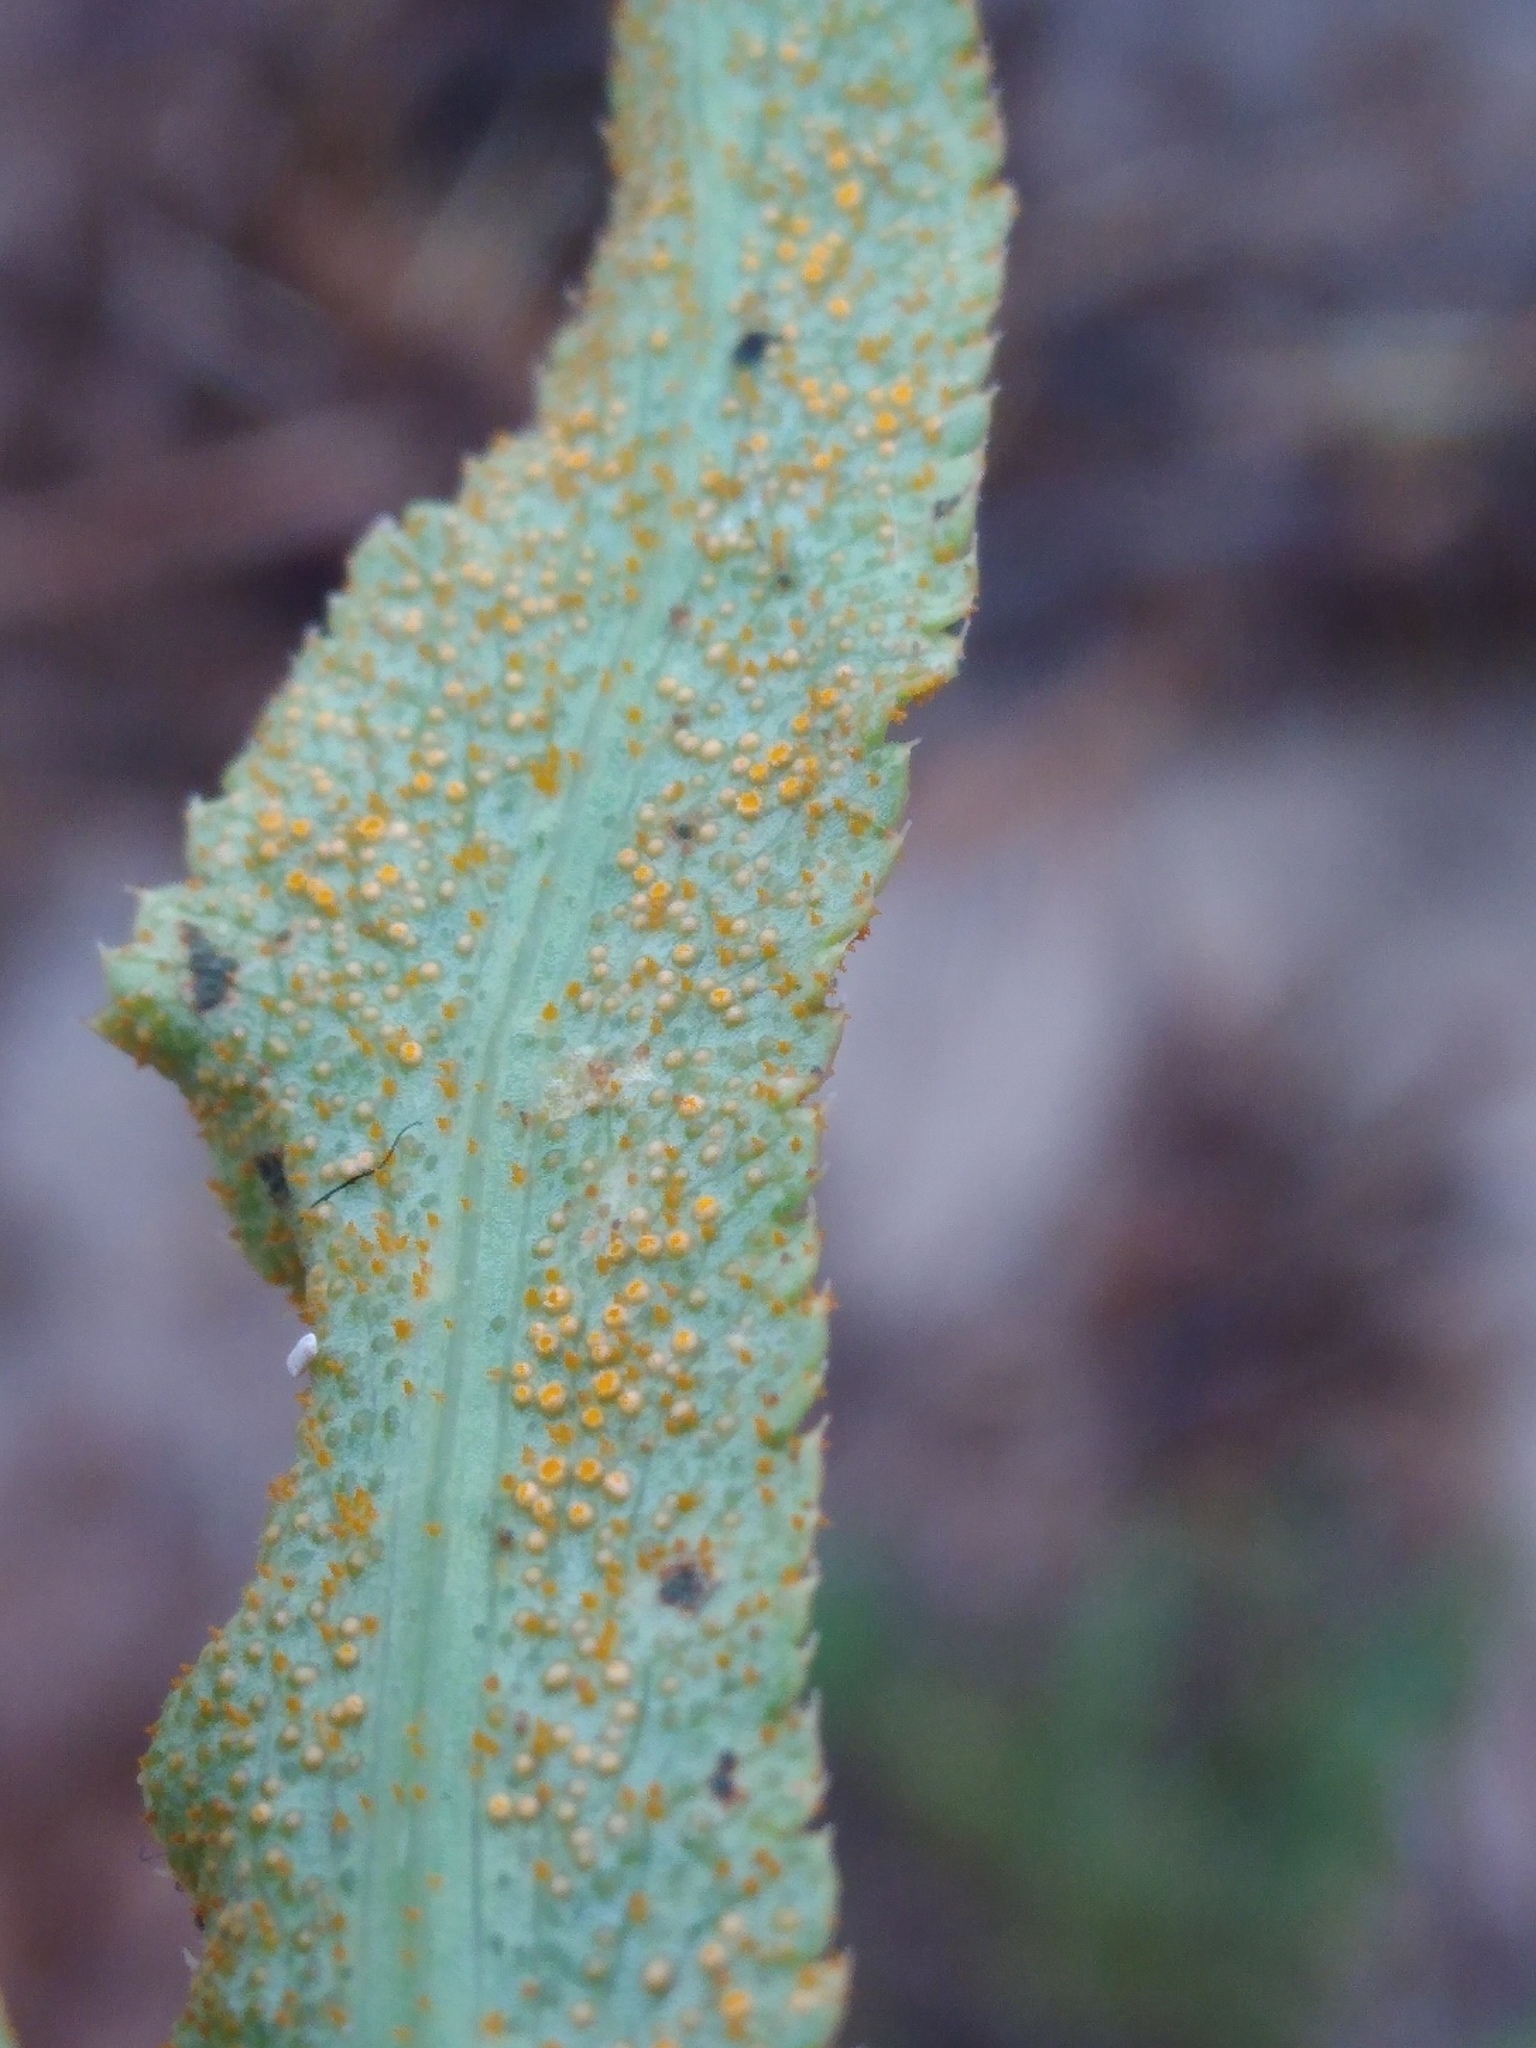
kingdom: Fungi
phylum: Basidiomycota
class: Pucciniomycetes
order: Pucciniales
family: Pucciniaceae
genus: Puccinia
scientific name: Puccinia sii-falcariae
